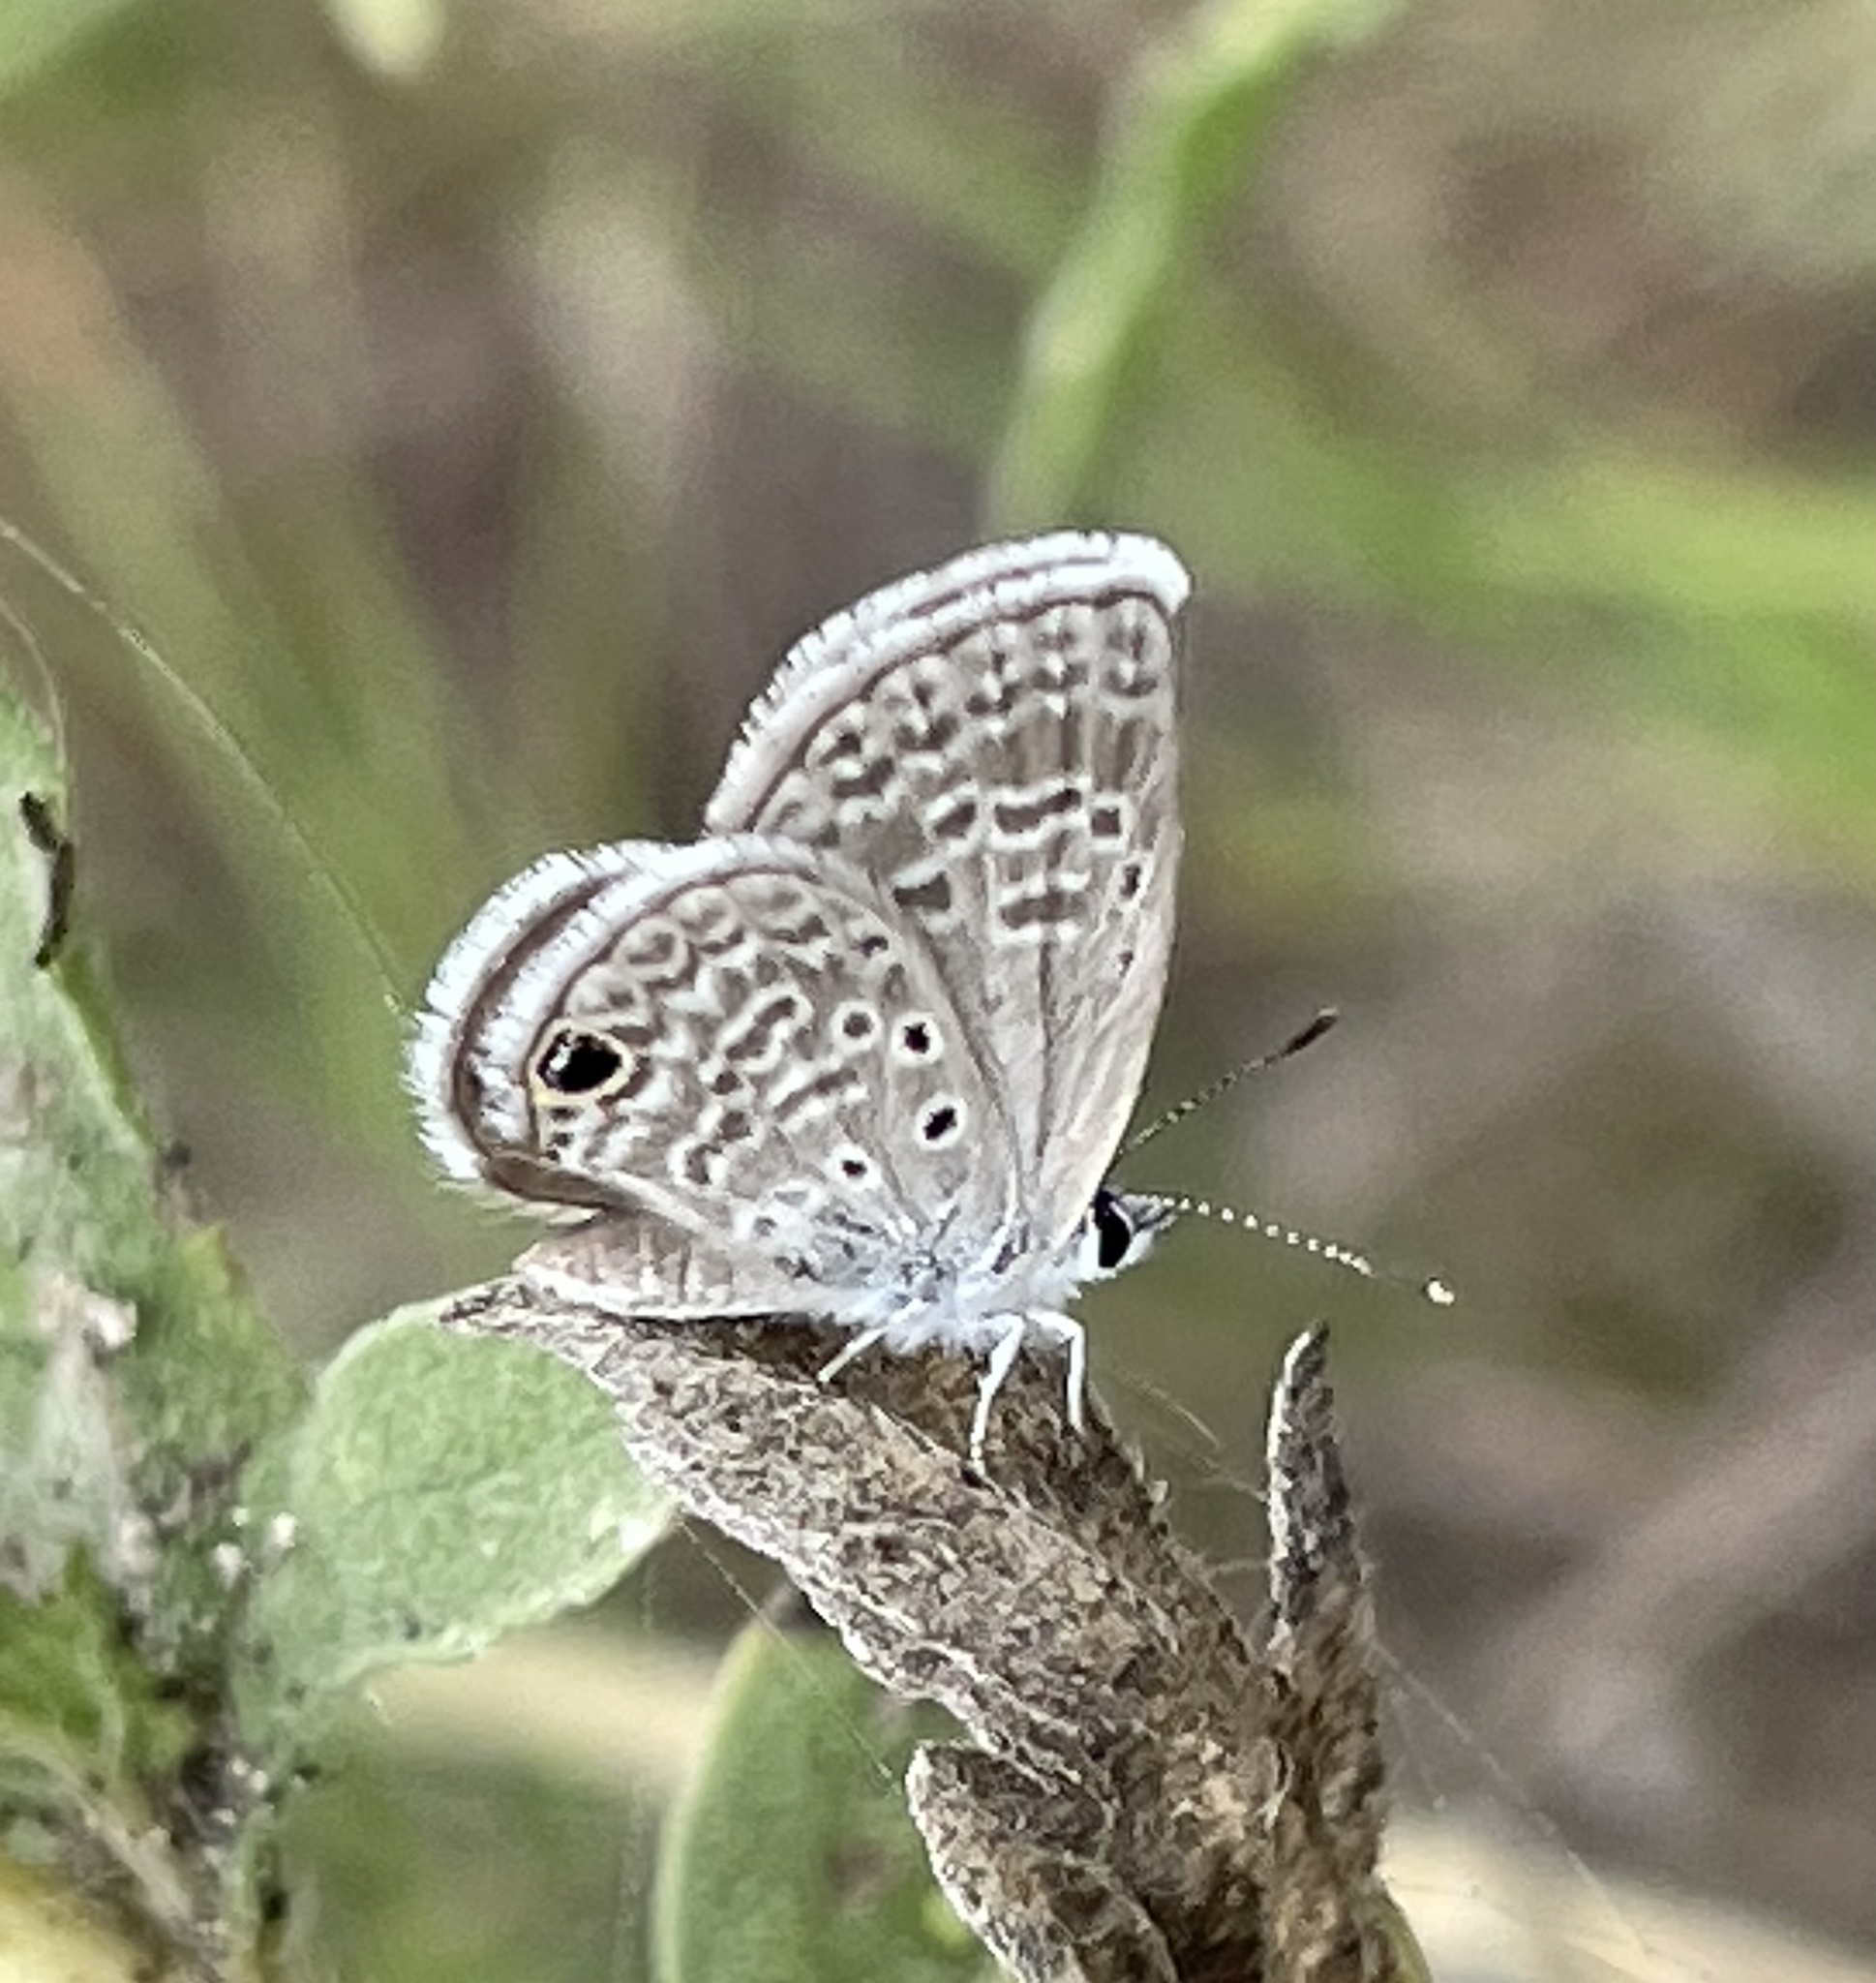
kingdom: Animalia
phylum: Arthropoda
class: Insecta
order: Lepidoptera
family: Lycaenidae
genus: Hemiargus
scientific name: Hemiargus ceraunus
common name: Ceraunus blue
